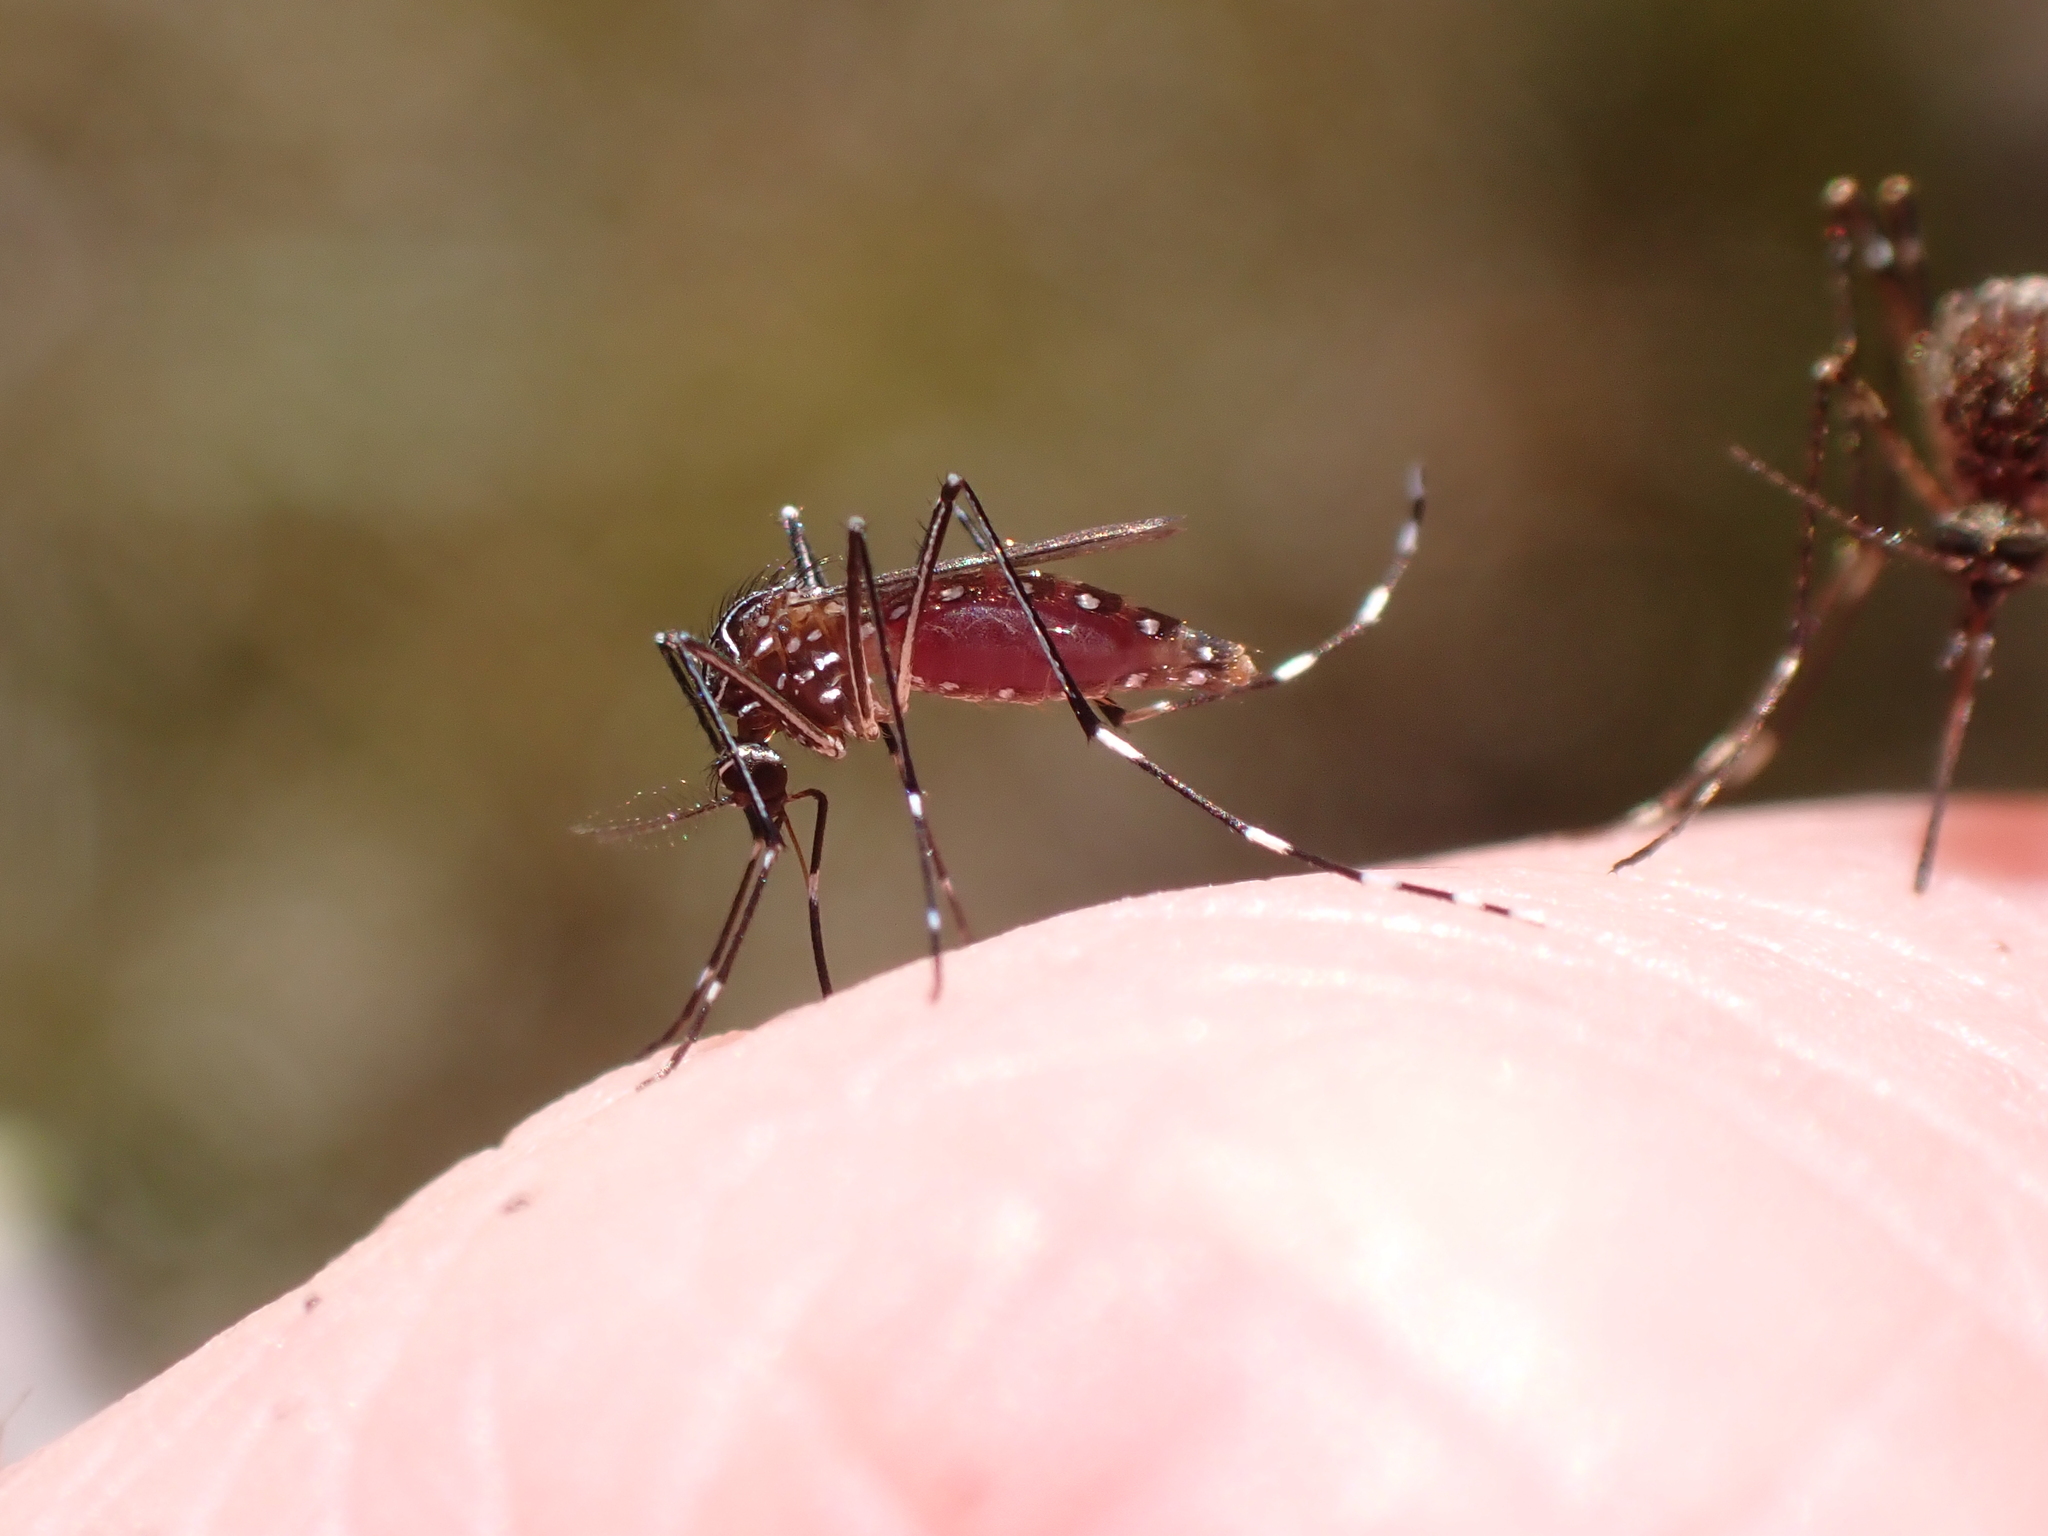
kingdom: Animalia
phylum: Arthropoda
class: Insecta
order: Diptera
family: Culicidae
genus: Aedes
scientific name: Aedes notoscriptus
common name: Australian backyard mosquito
